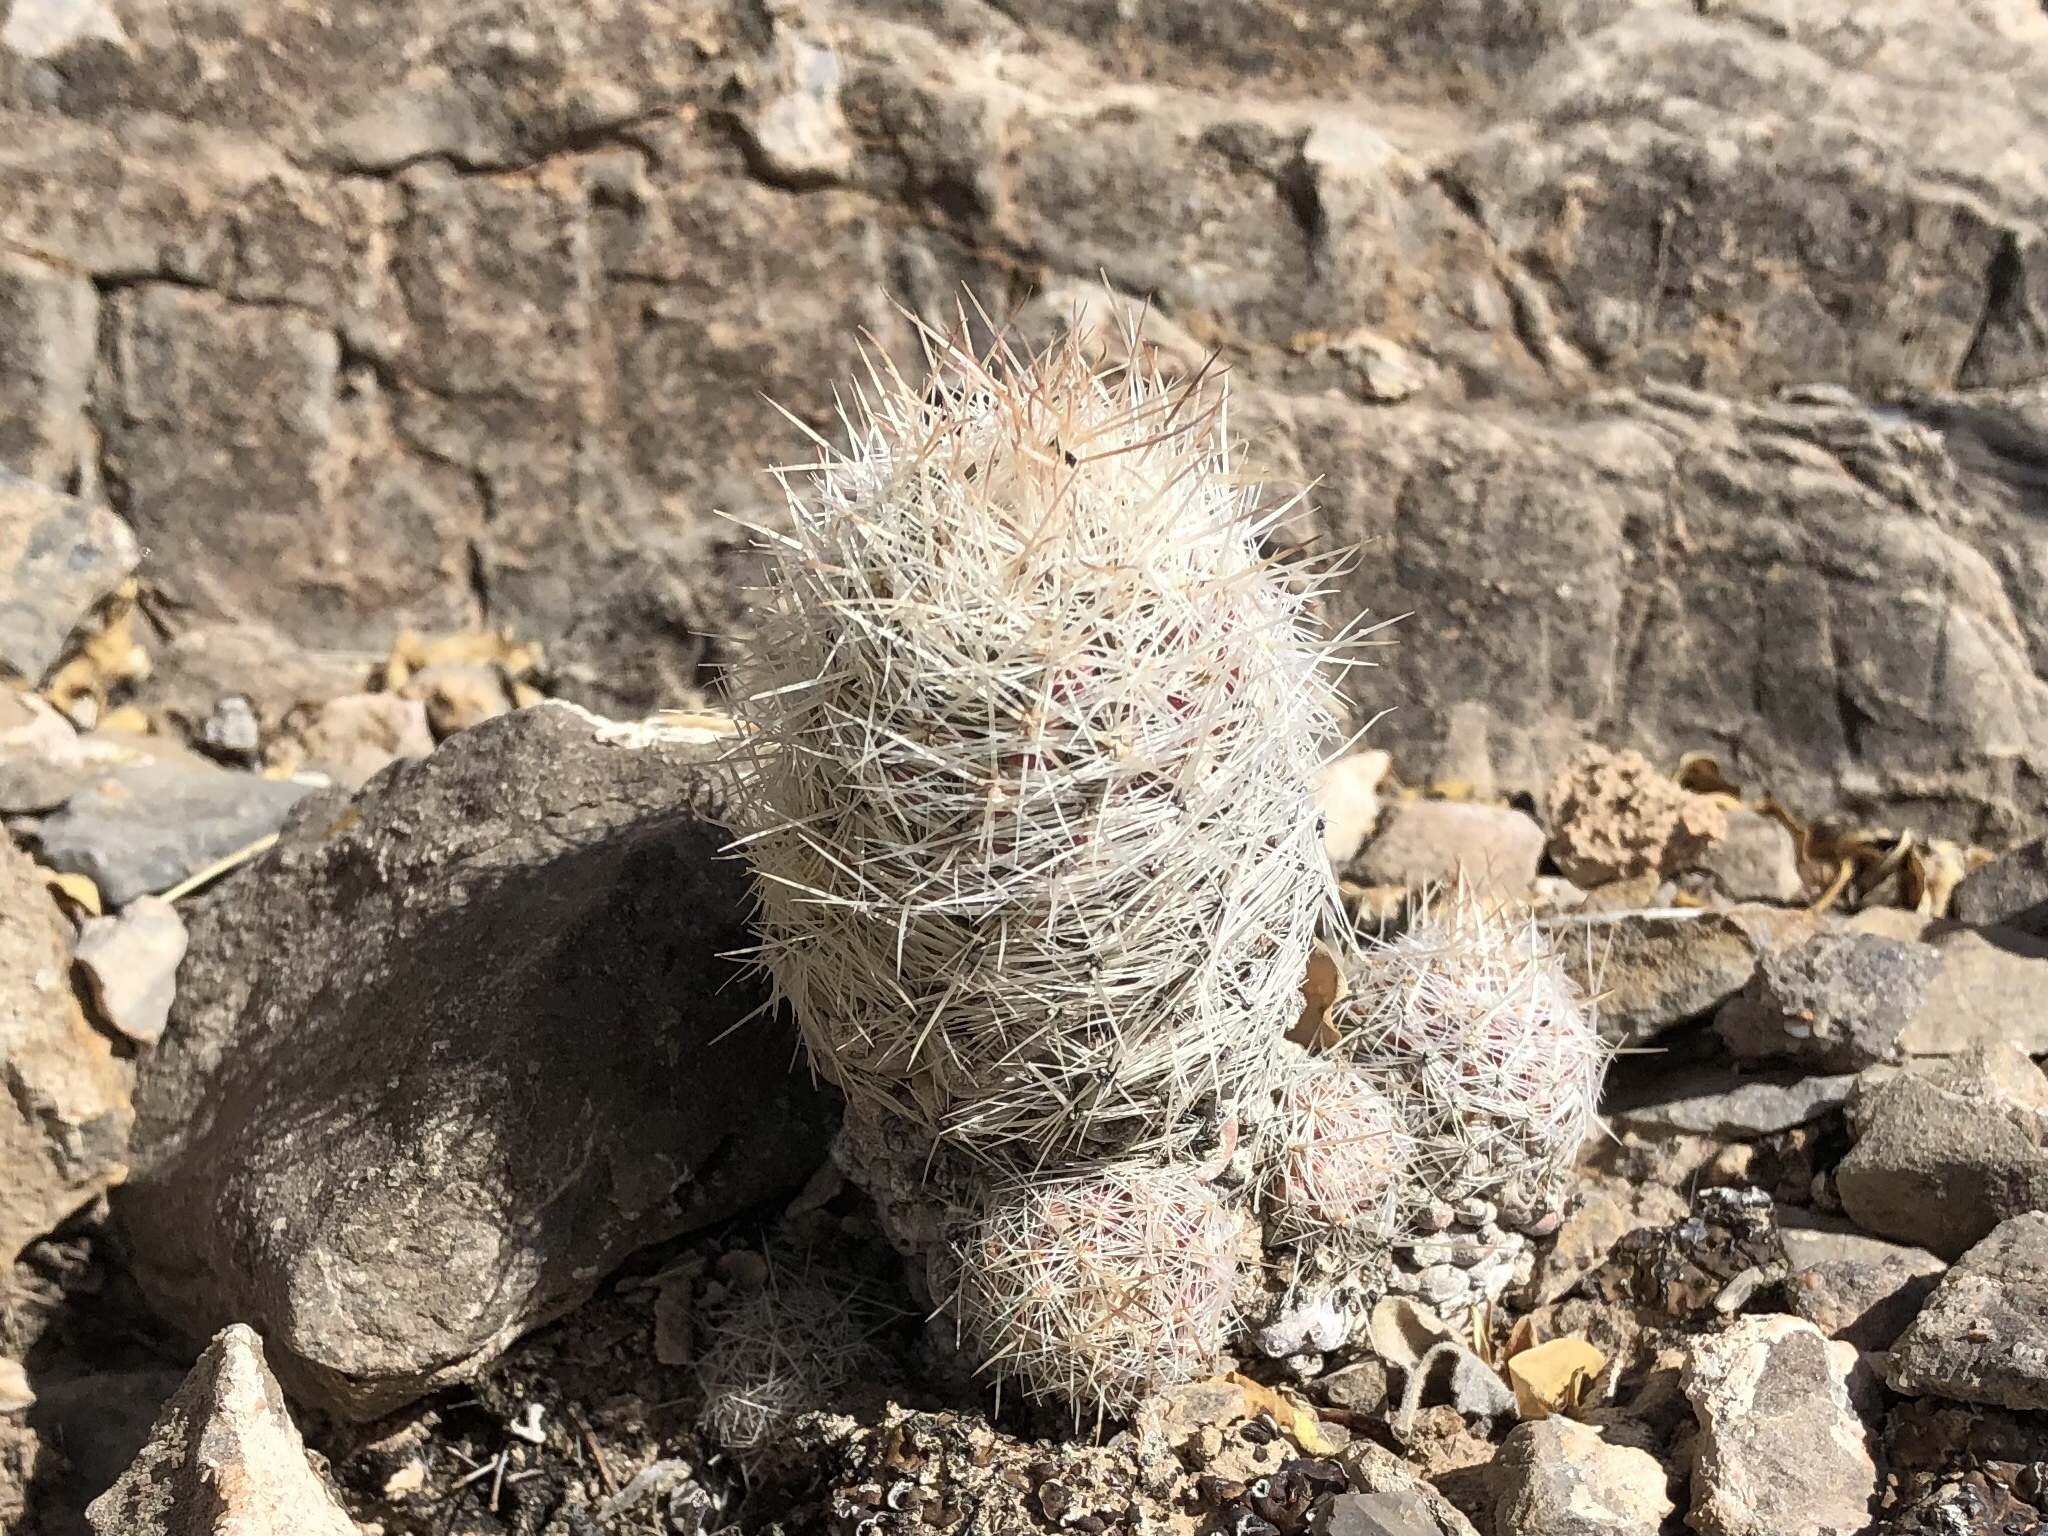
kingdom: Plantae
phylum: Tracheophyta
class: Magnoliopsida
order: Caryophyllales
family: Cactaceae
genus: Pelecyphora
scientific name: Pelecyphora tuberculosa
